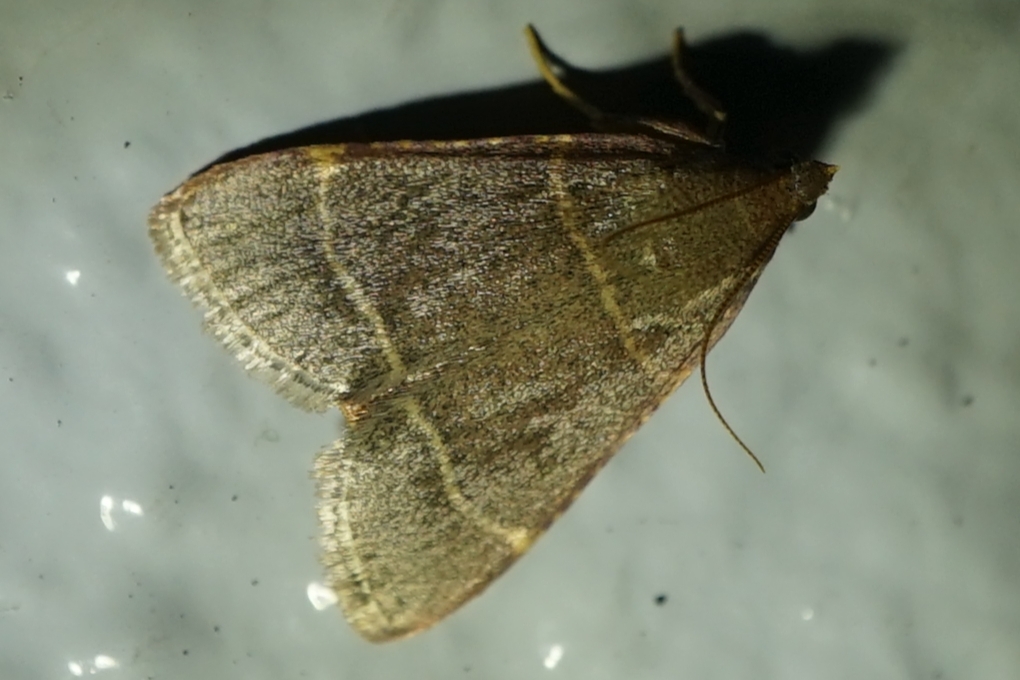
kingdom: Animalia
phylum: Arthropoda
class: Insecta
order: Lepidoptera
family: Pyralidae
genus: Hypsopygia
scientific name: Hypsopygia glaucinalis
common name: Double-striped tabby
